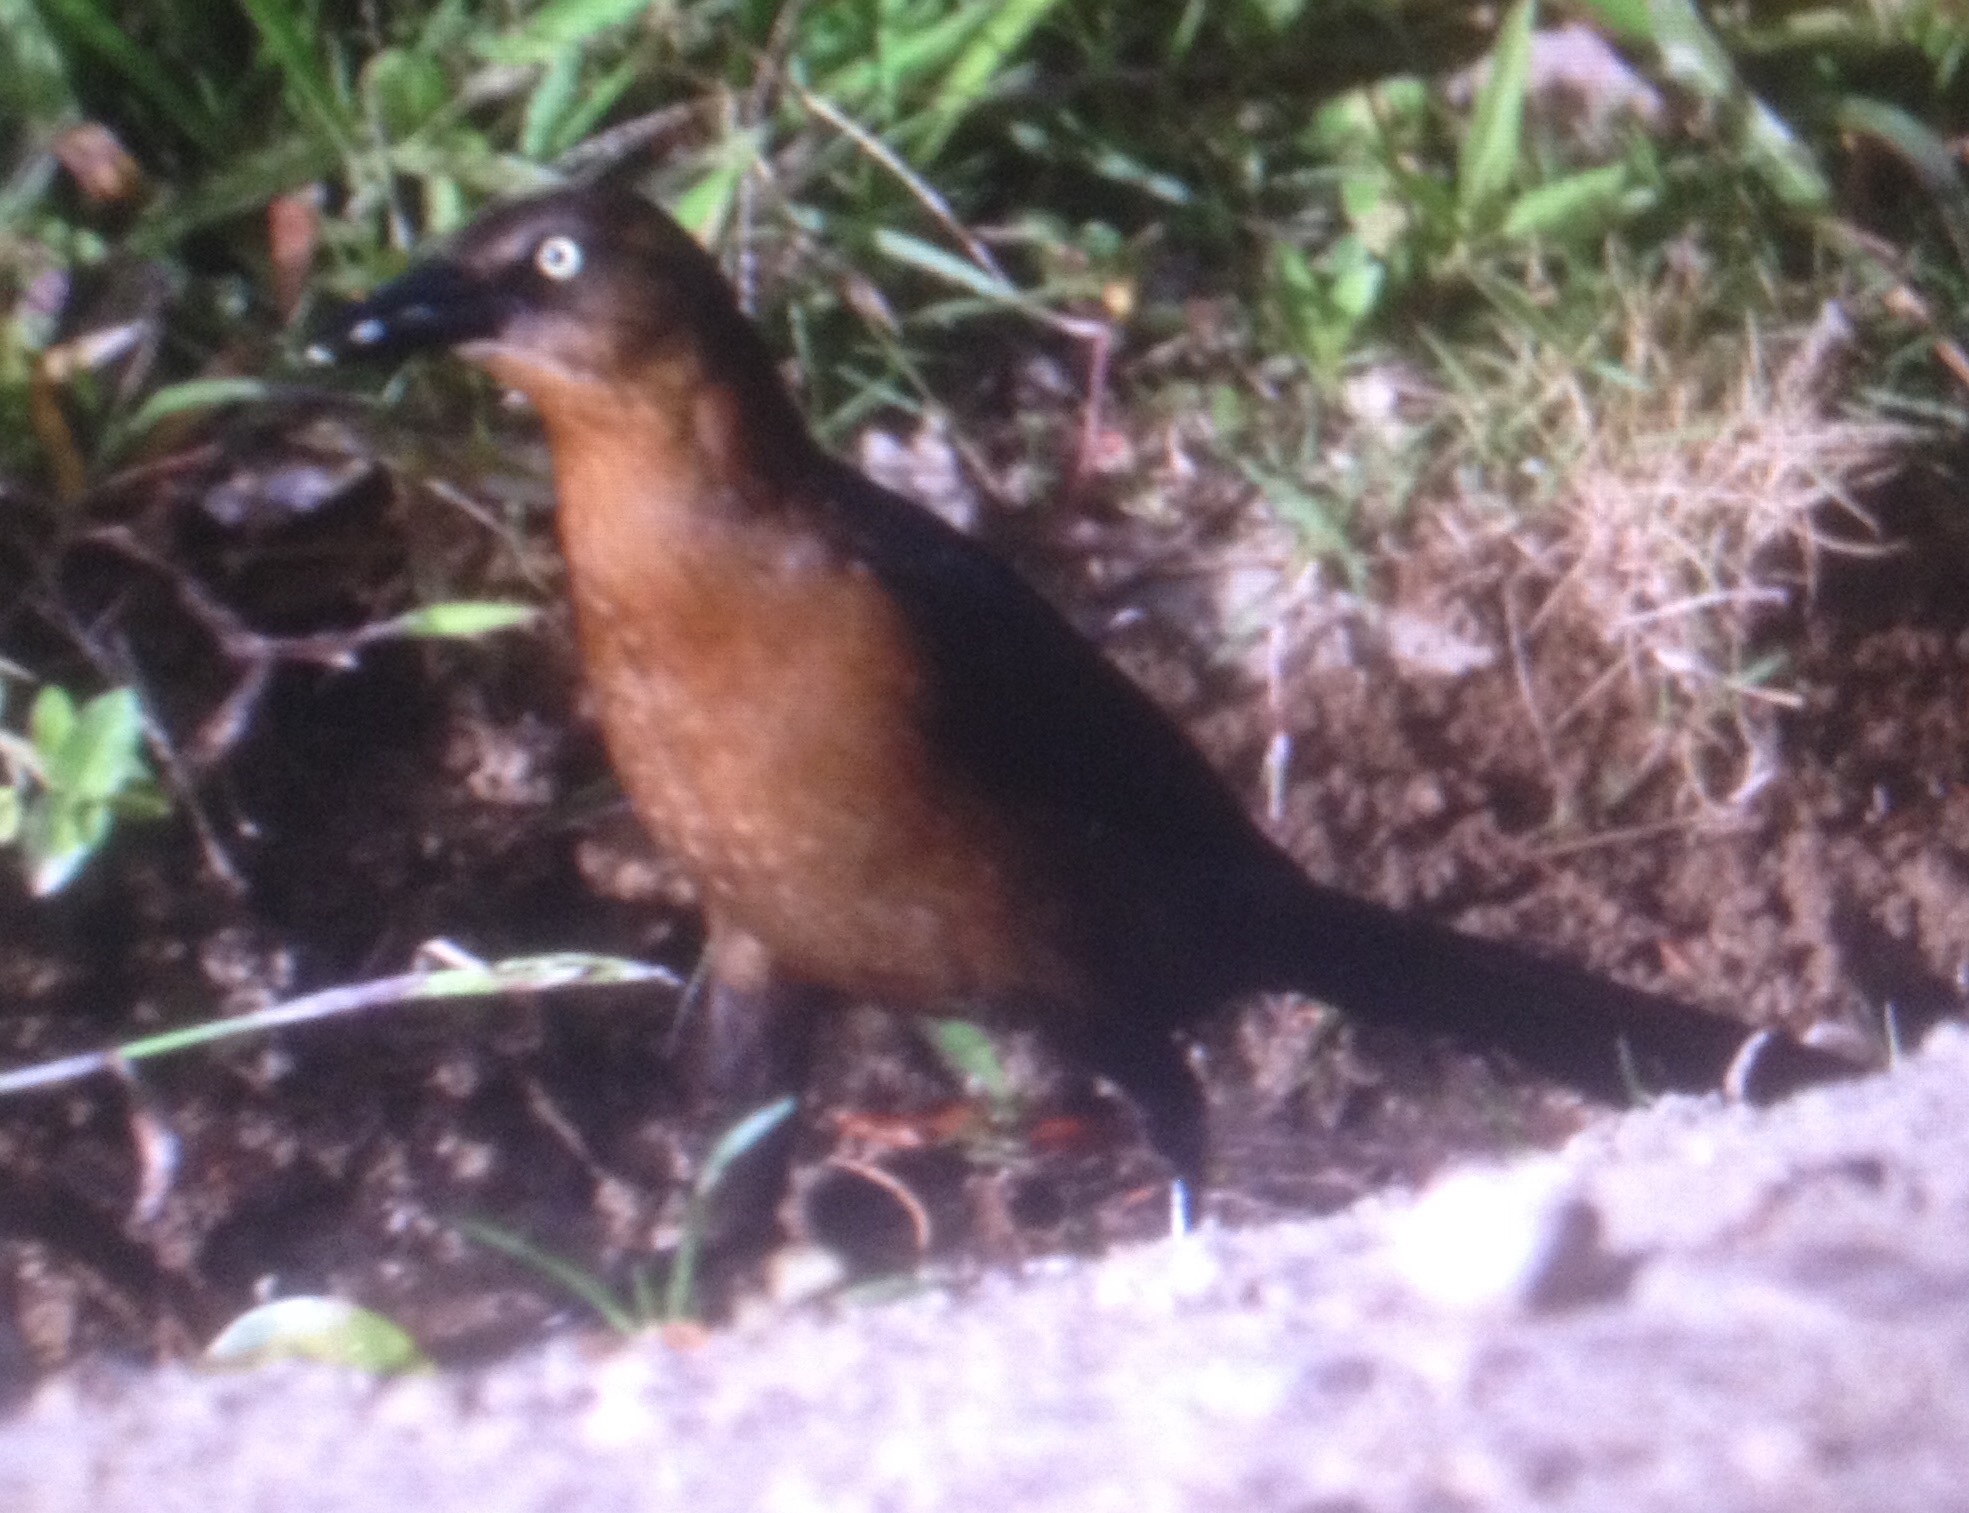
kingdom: Animalia
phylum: Chordata
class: Aves
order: Passeriformes
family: Icteridae
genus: Quiscalus
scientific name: Quiscalus mexicanus
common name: Great-tailed grackle
